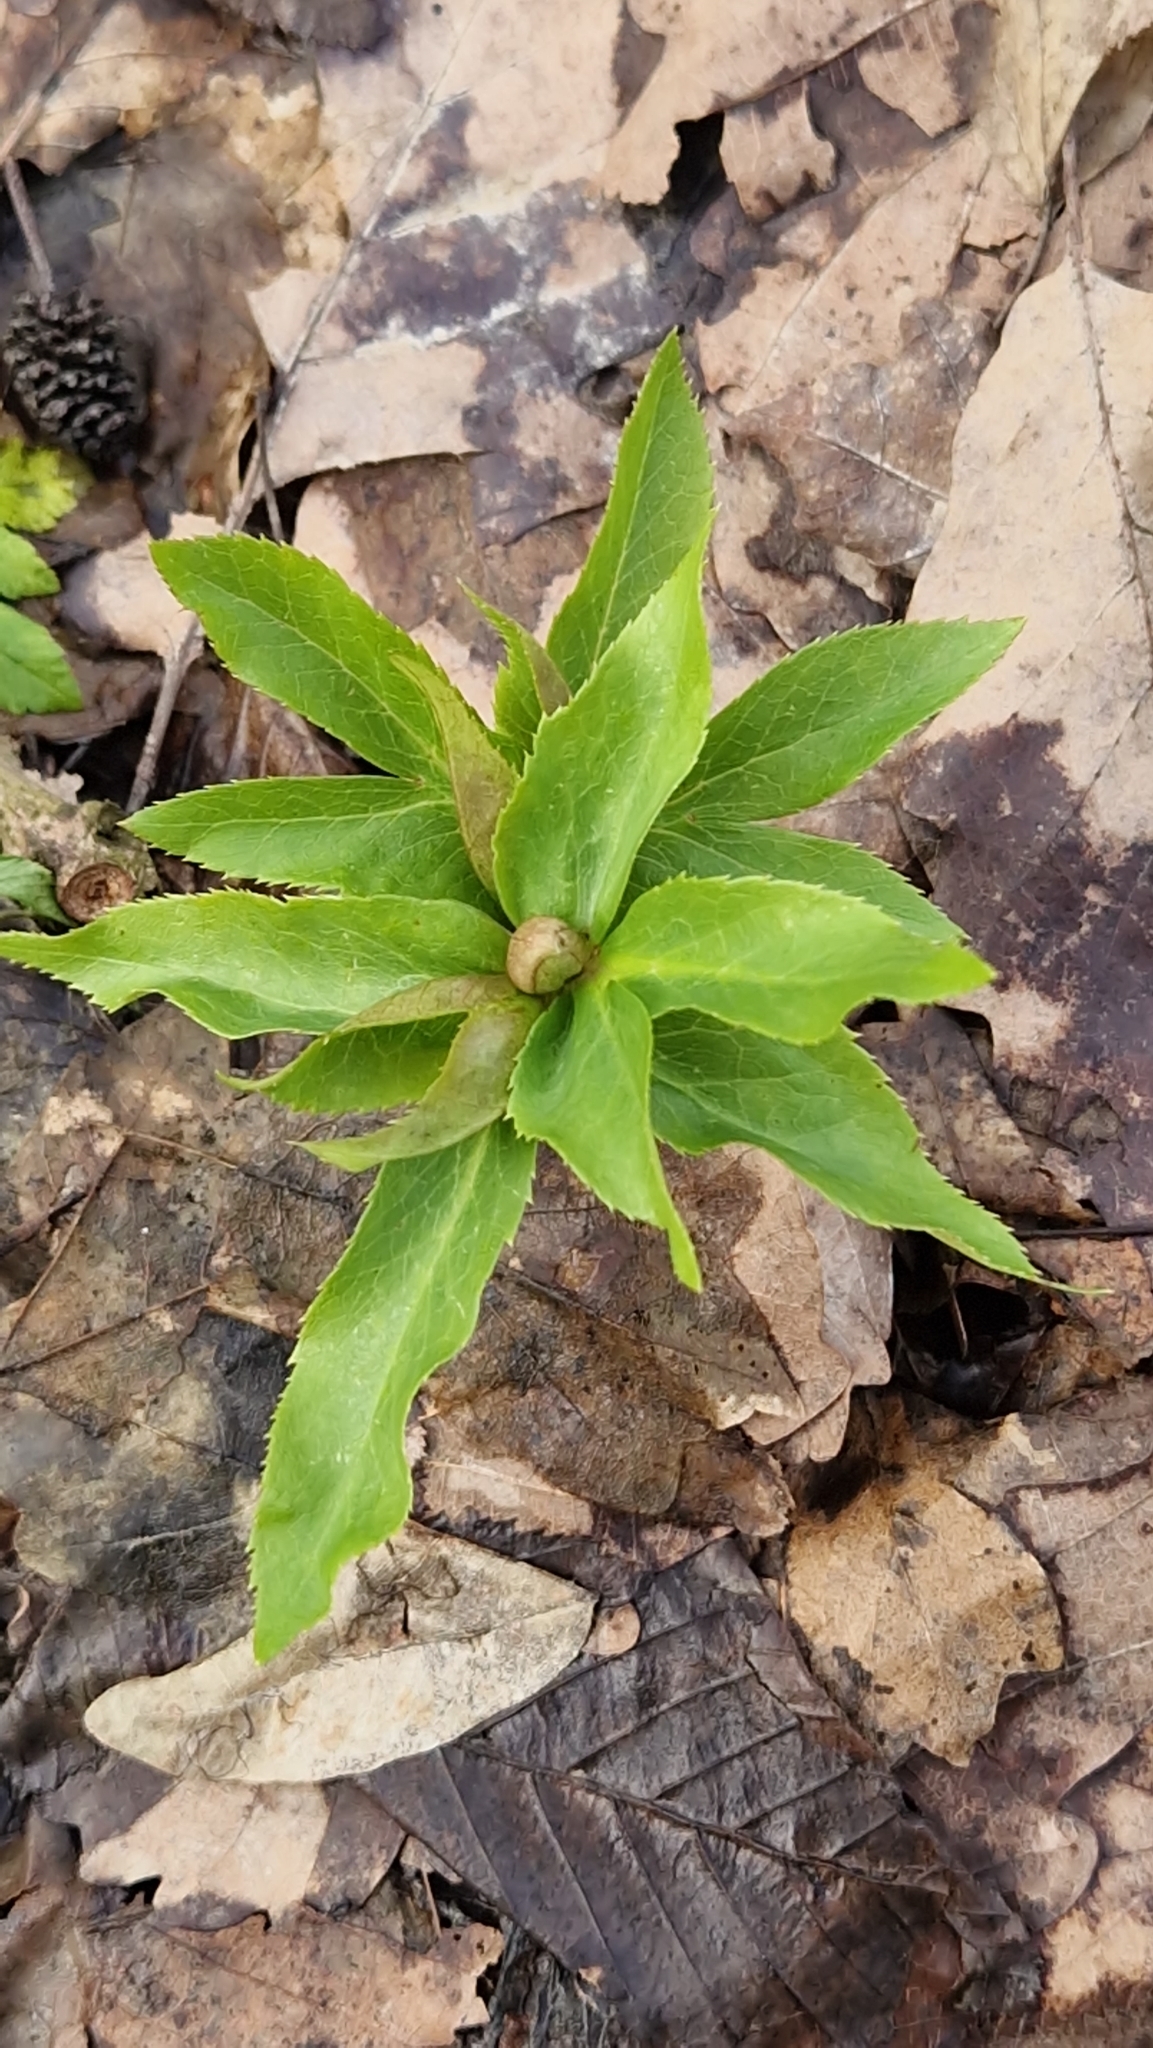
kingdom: Plantae
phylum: Tracheophyta
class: Magnoliopsida
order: Ranunculales
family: Ranunculaceae
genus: Helleborus
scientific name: Helleborus orientalis
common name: Lenten-rose
